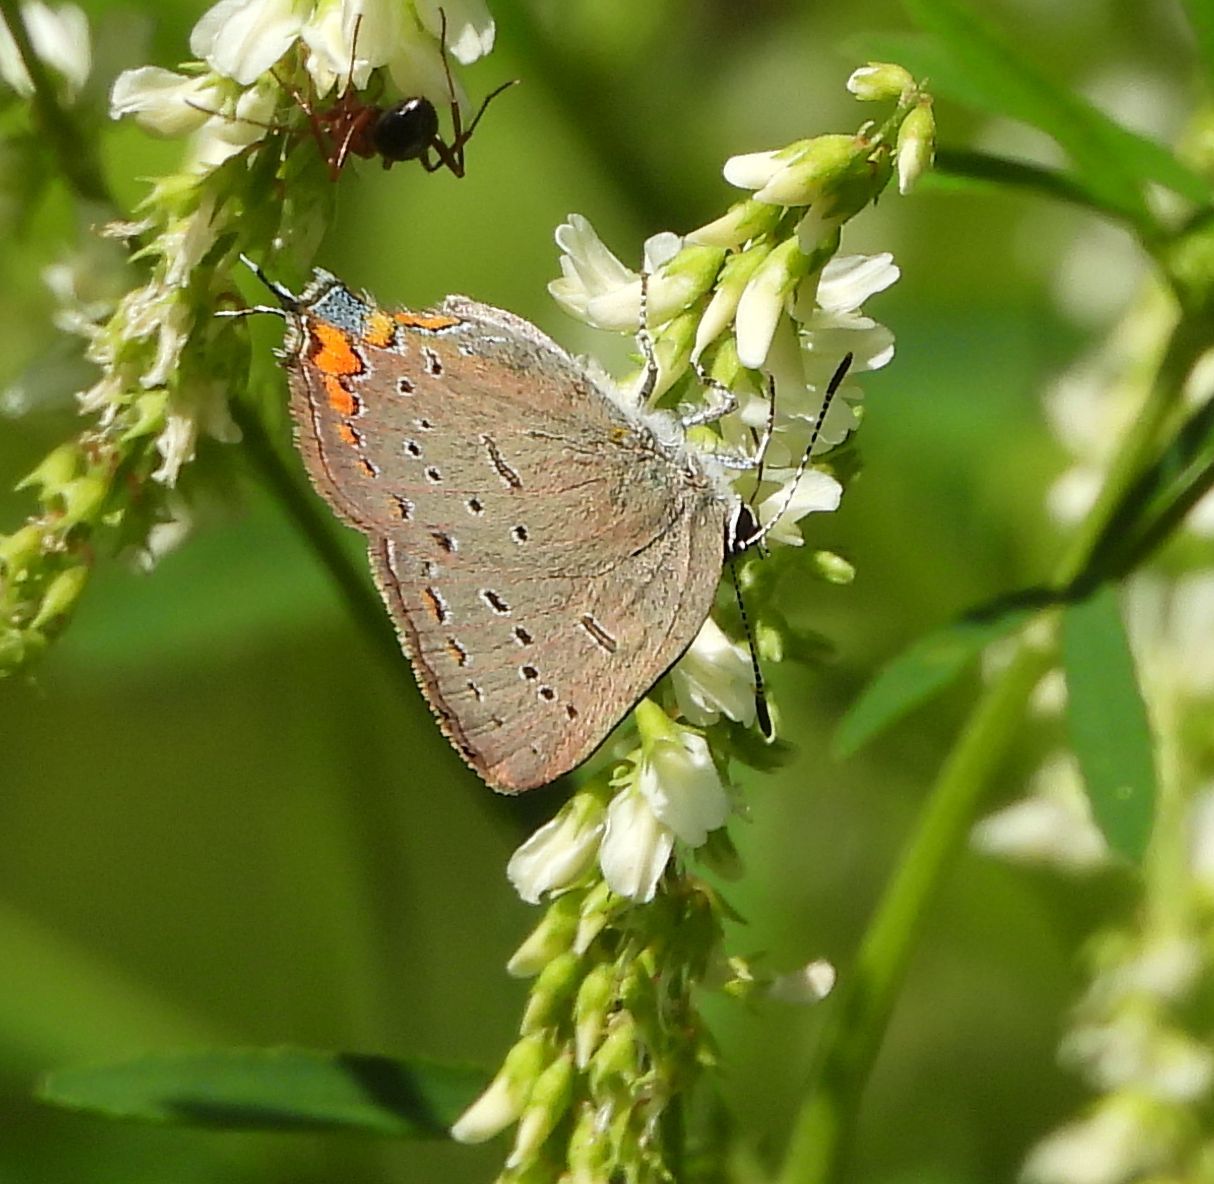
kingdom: Animalia
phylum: Arthropoda
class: Insecta
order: Lepidoptera
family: Lycaenidae
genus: Strymon
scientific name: Strymon acadica
